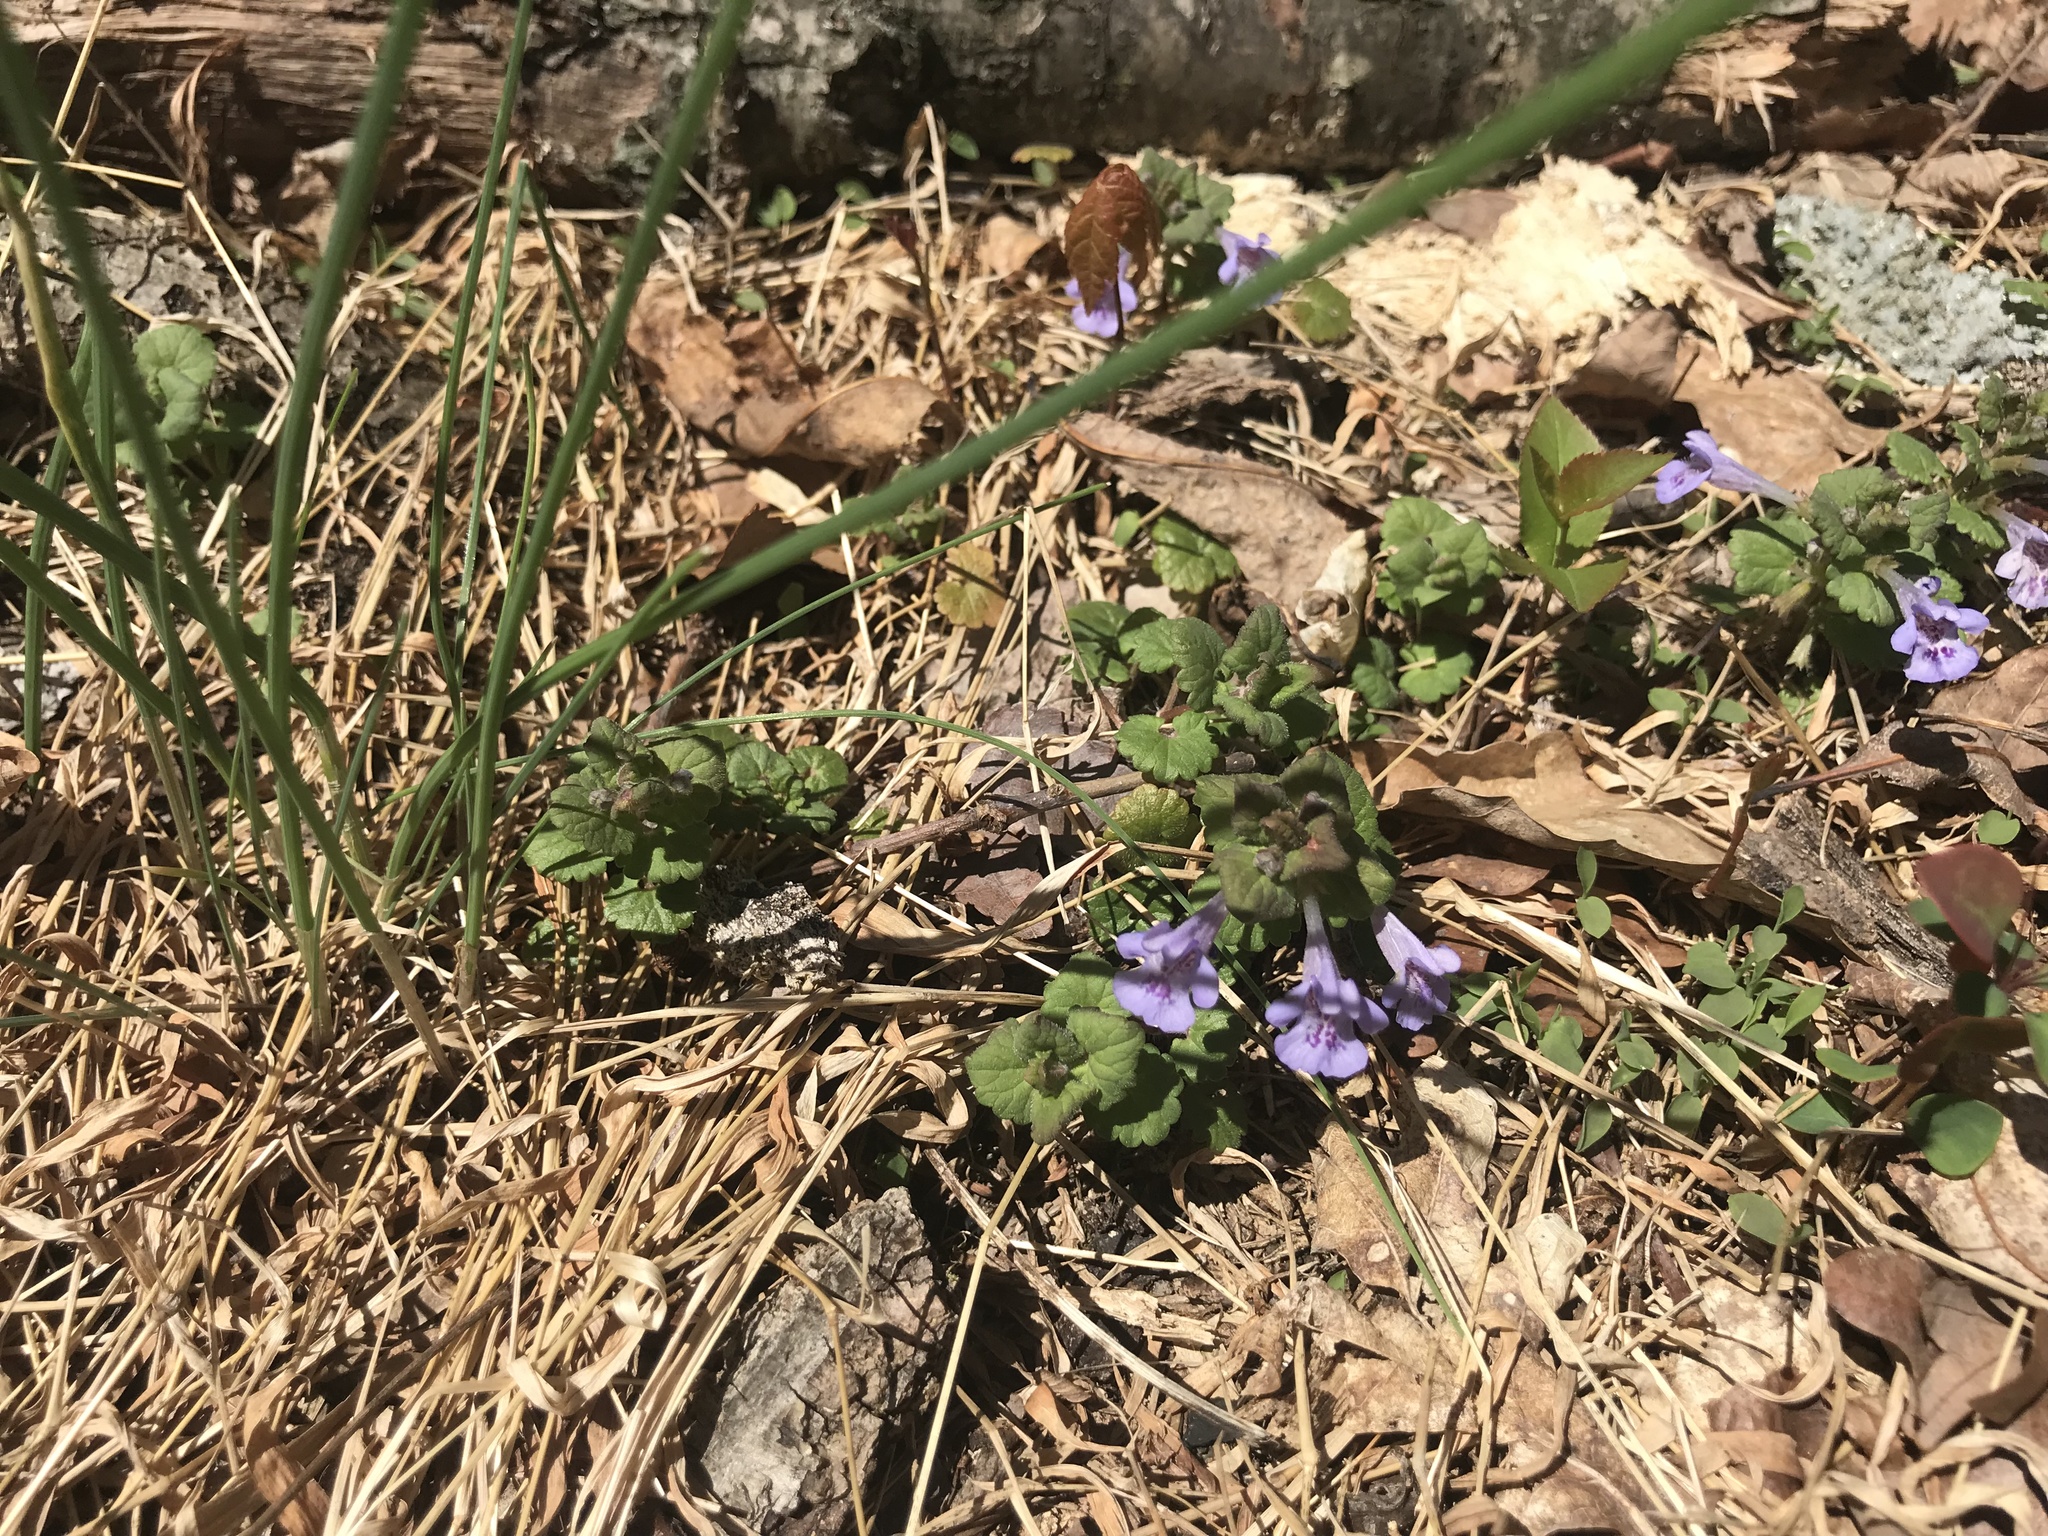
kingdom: Plantae
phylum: Tracheophyta
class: Magnoliopsida
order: Lamiales
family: Lamiaceae
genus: Glechoma
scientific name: Glechoma hederacea
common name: Ground ivy
